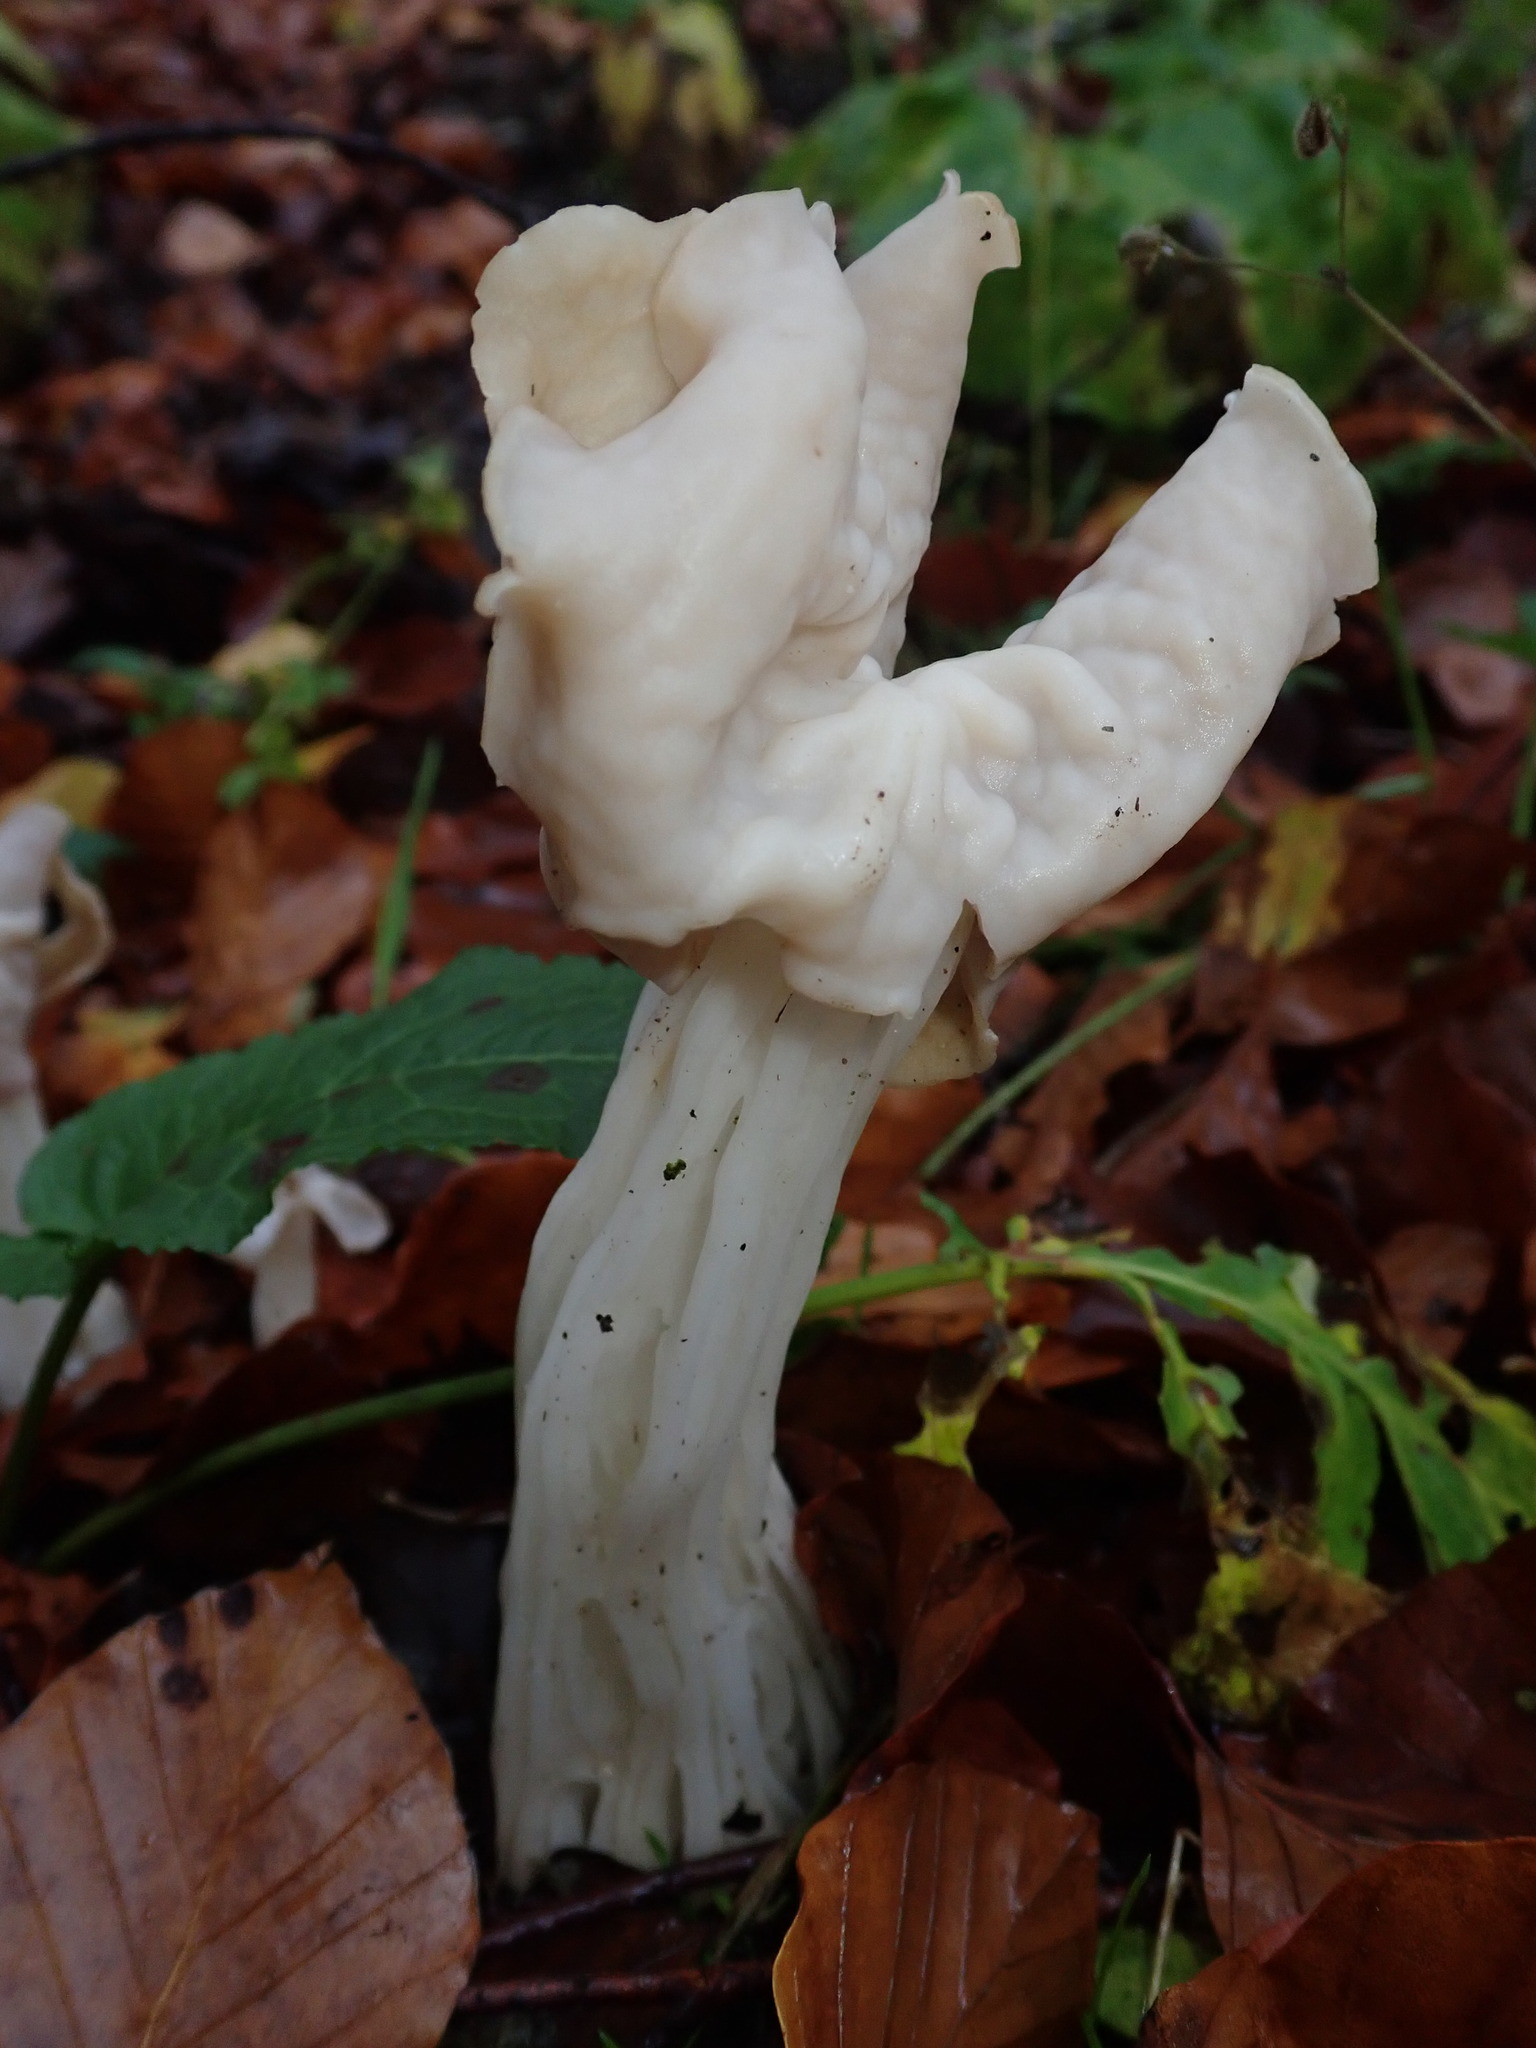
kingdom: Fungi
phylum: Ascomycota
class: Pezizomycetes
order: Pezizales
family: Helvellaceae
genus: Helvella
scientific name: Helvella crispa
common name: White saddle
